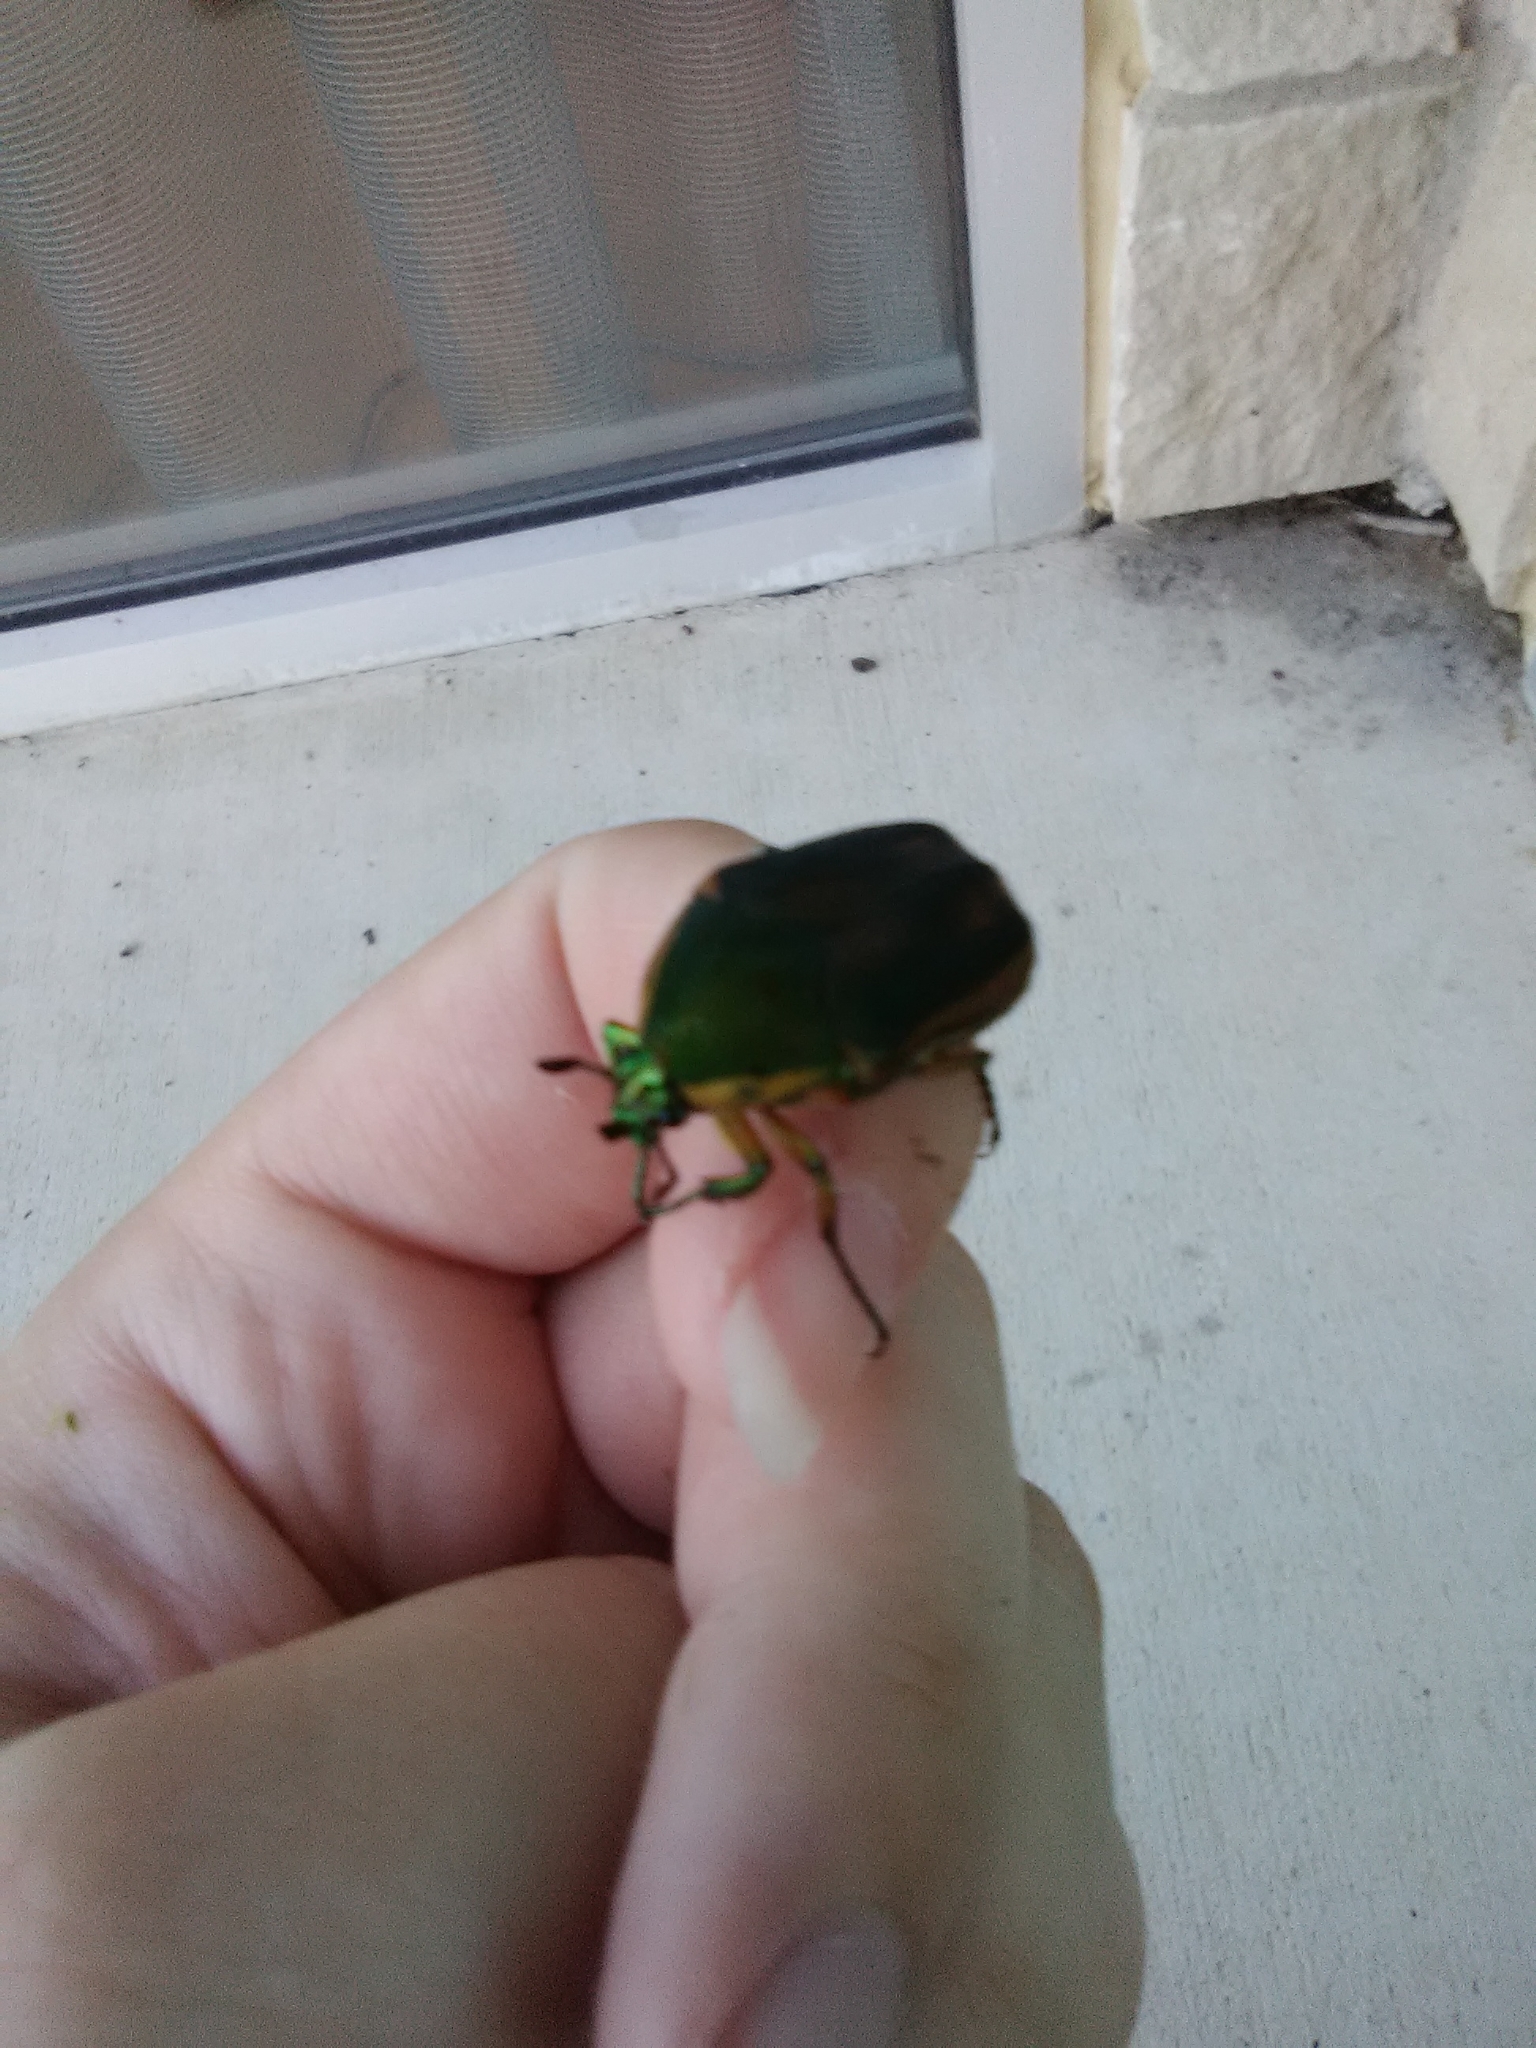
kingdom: Animalia
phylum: Arthropoda
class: Insecta
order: Coleoptera
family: Scarabaeidae
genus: Cotinis
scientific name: Cotinis nitida
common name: Common green june beetle
